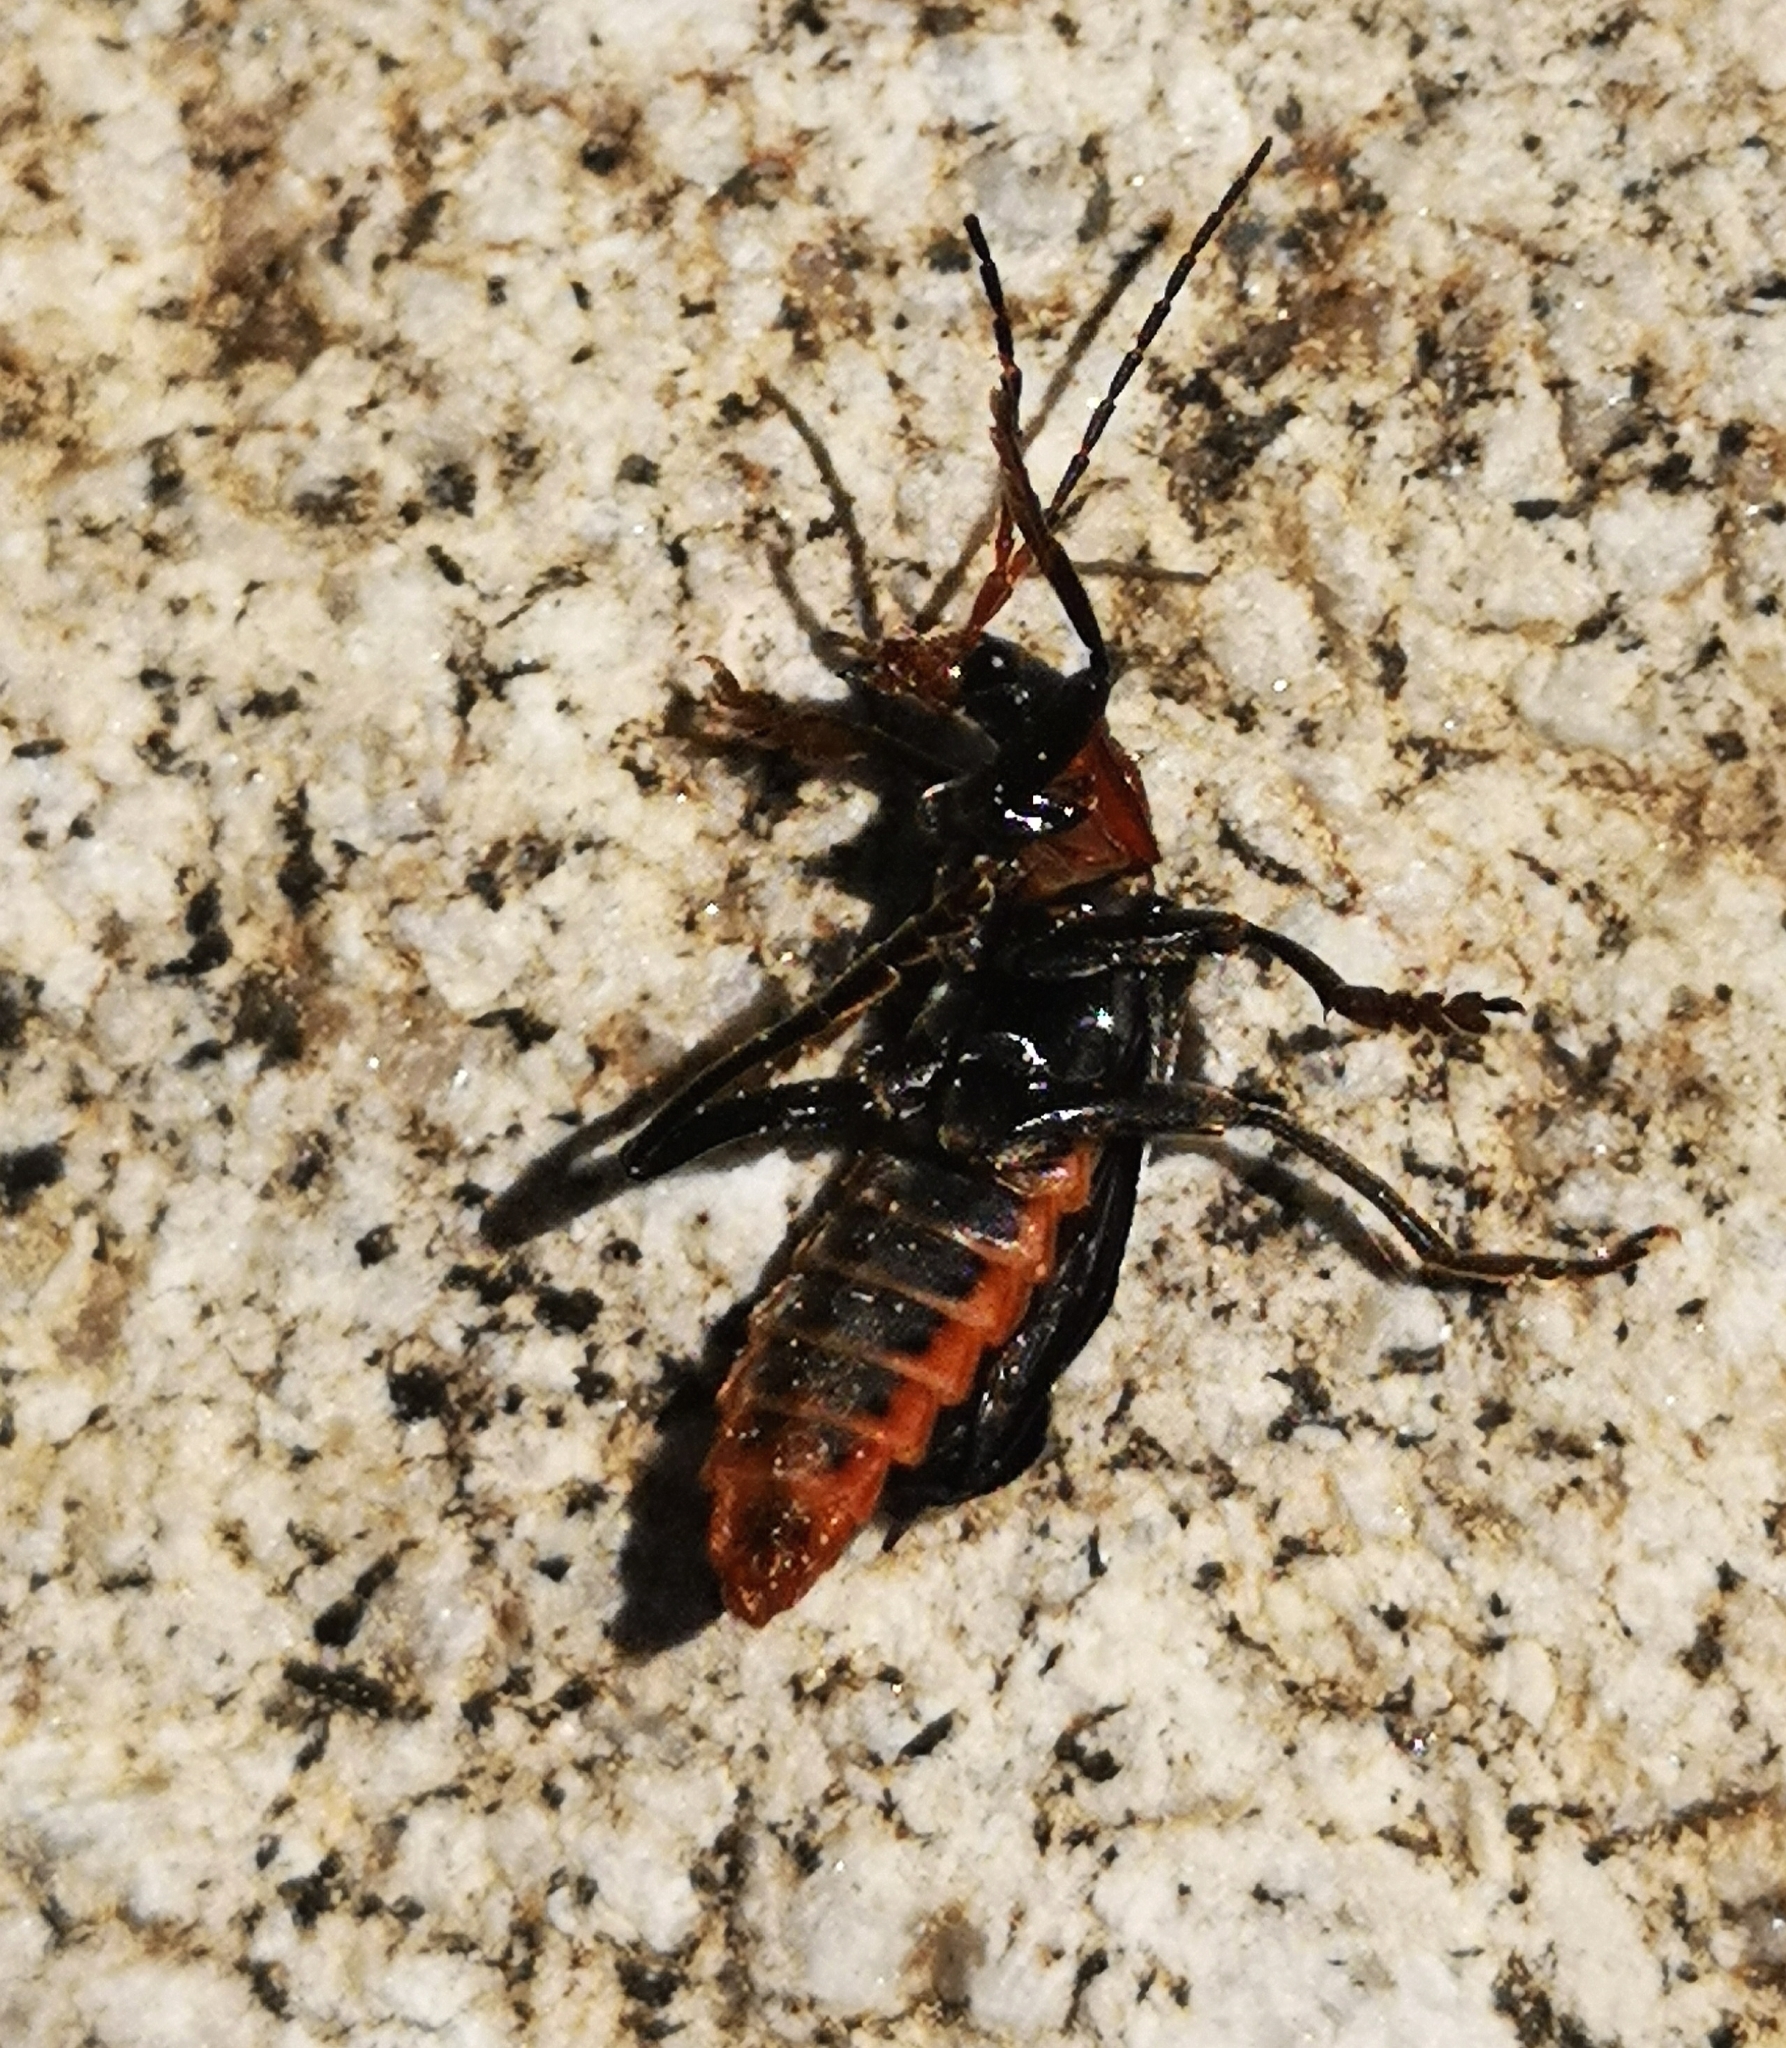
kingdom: Animalia
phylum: Arthropoda
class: Insecta
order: Coleoptera
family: Cantharidae
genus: Cantharis
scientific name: Cantharis fusca
